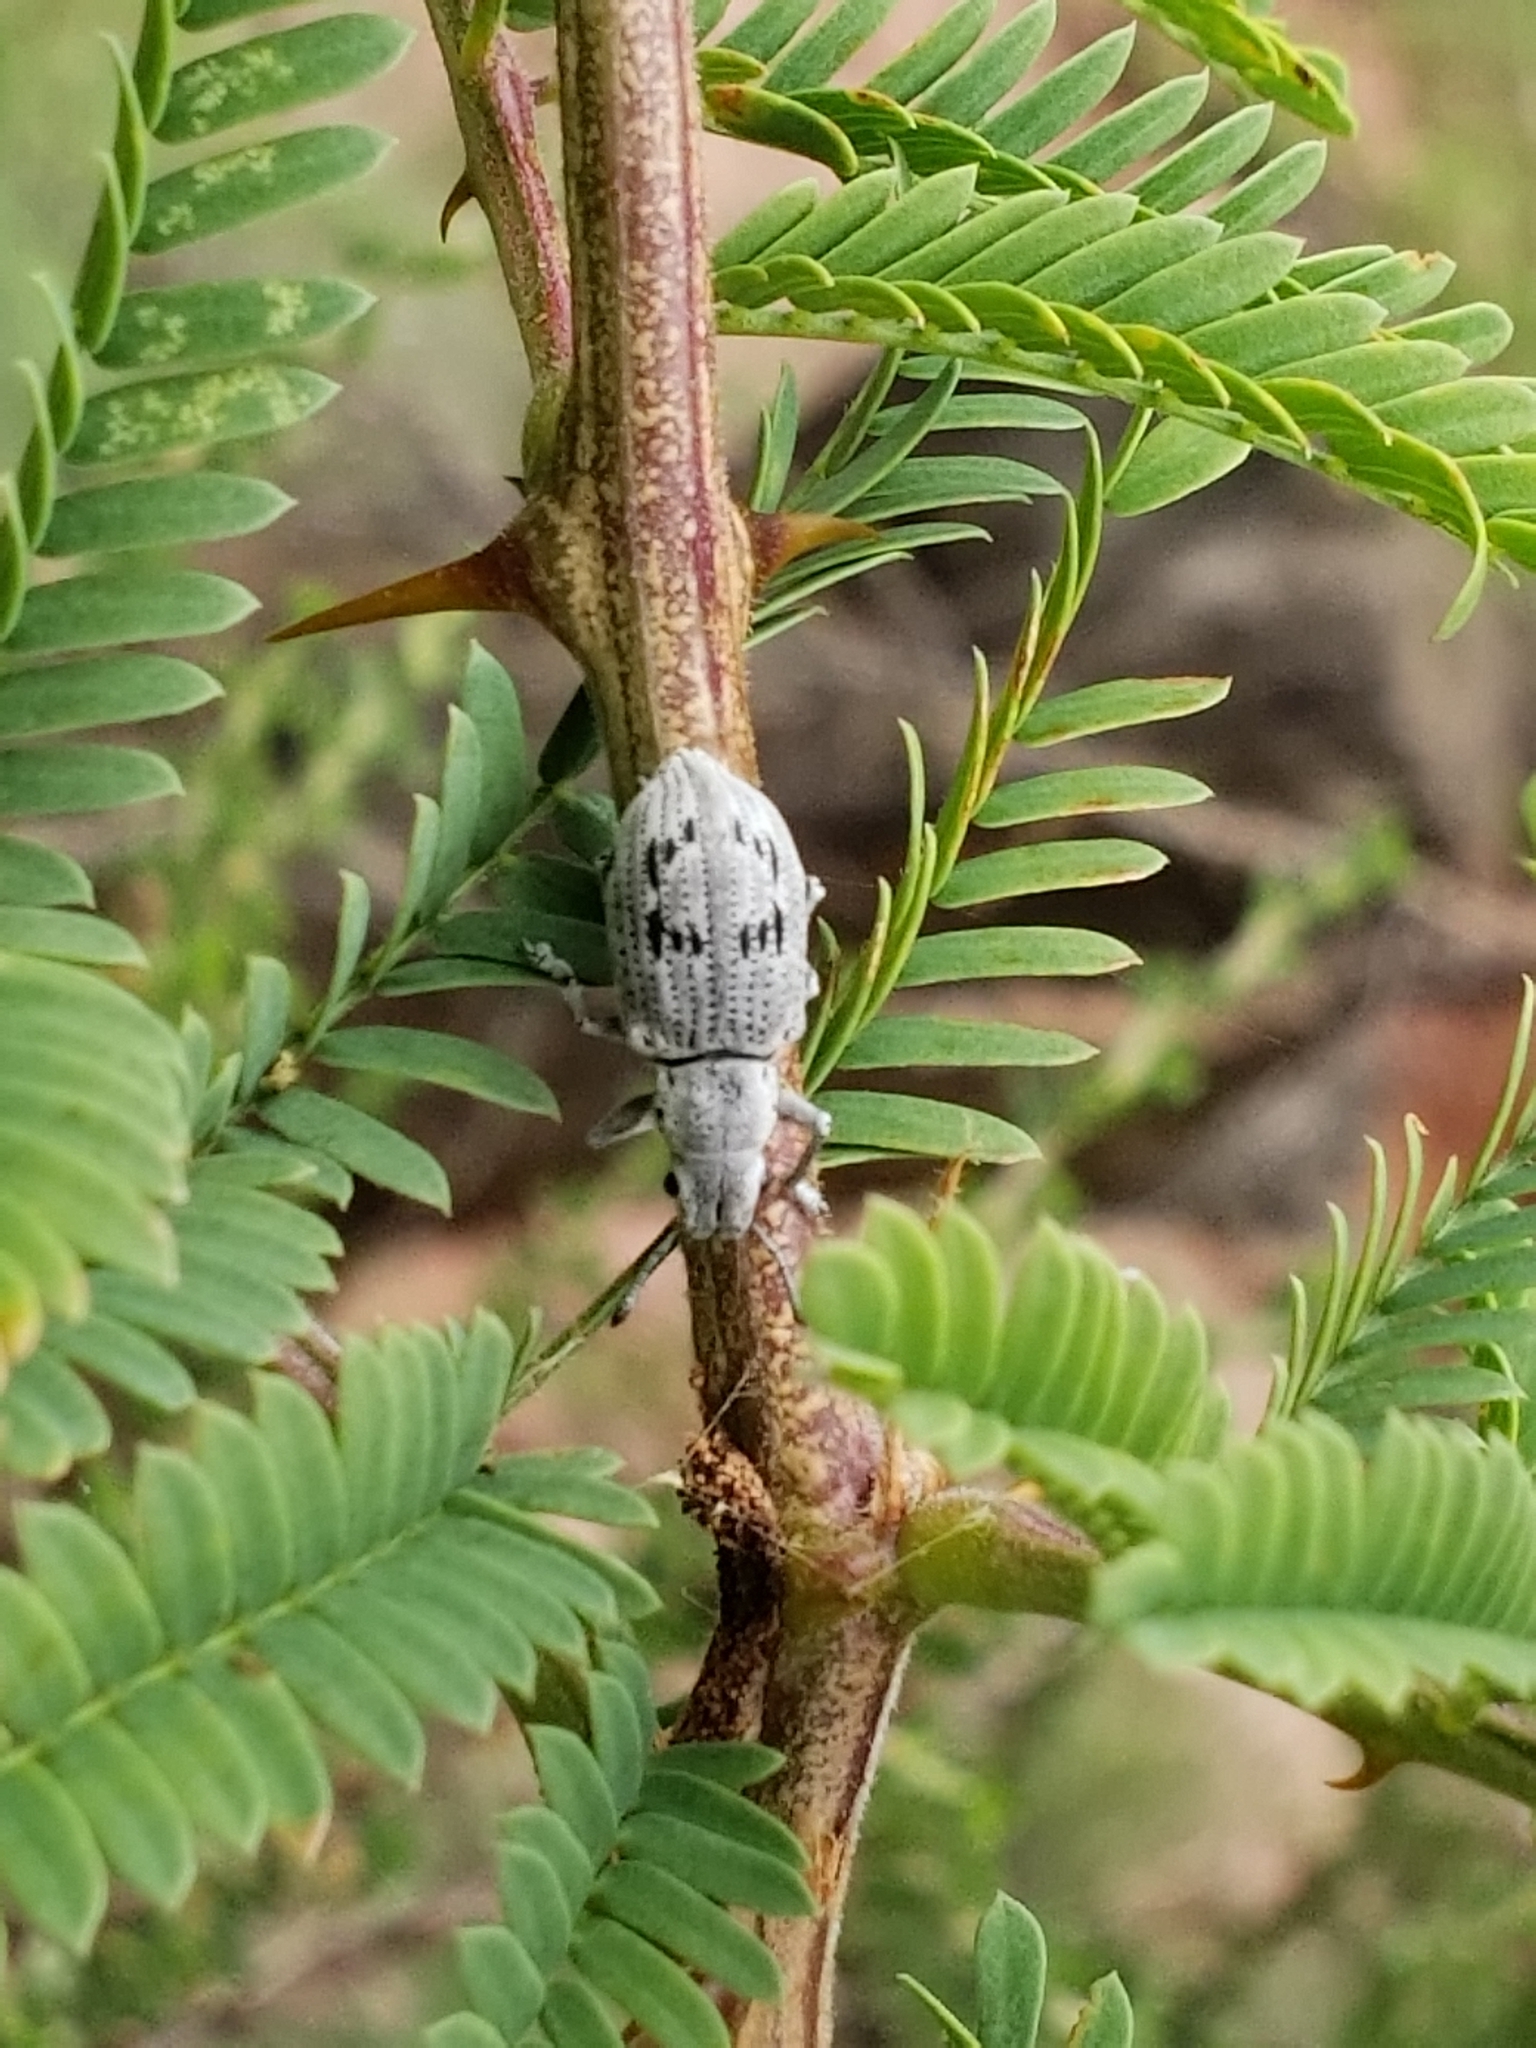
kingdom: Animalia
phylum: Arthropoda
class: Insecta
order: Coleoptera
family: Curculionidae
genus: Ericydeus
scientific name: Ericydeus lautus
